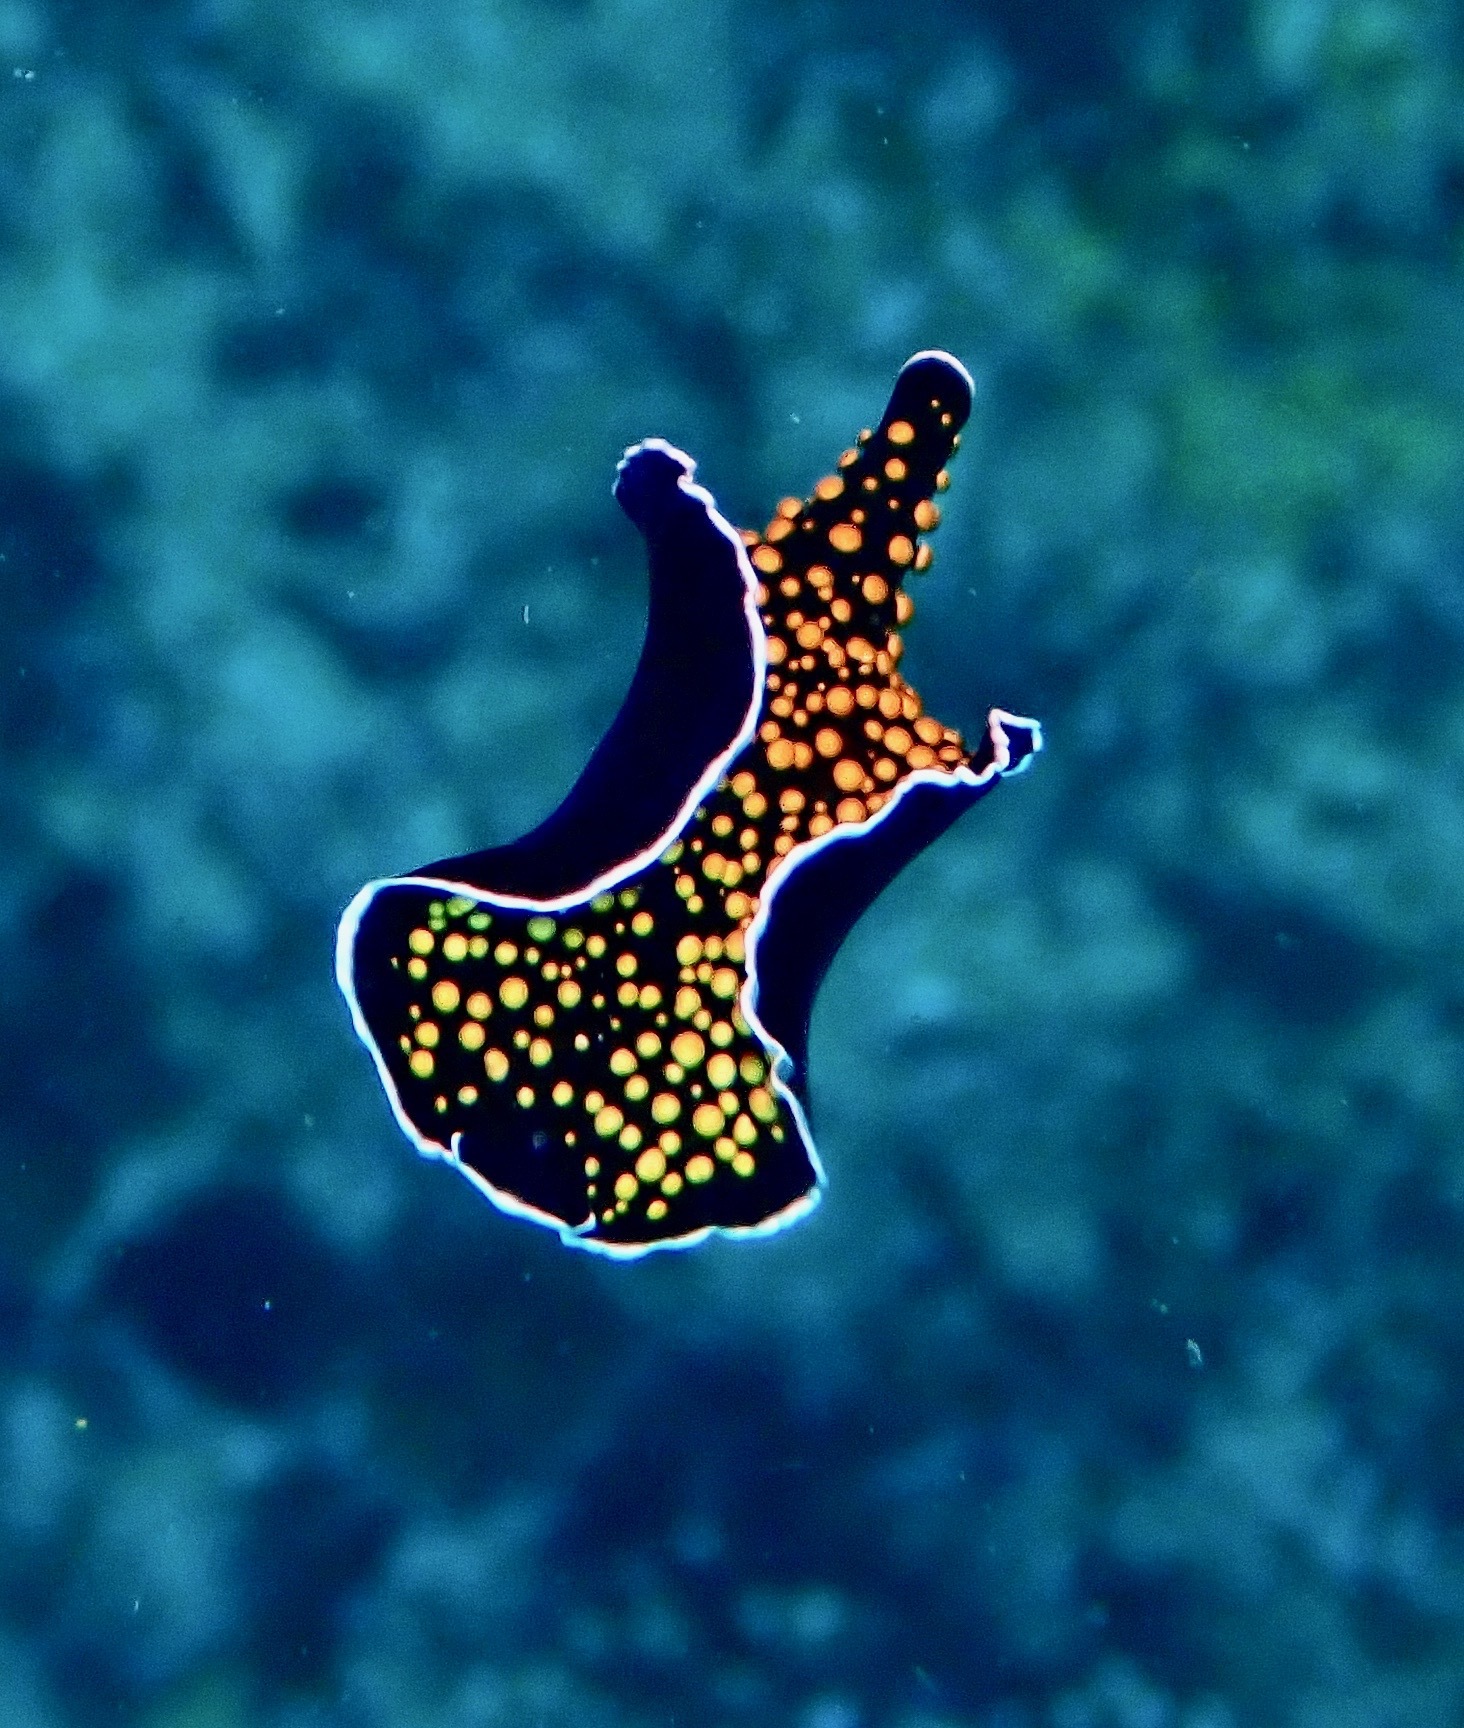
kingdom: Animalia
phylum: Platyhelminthes
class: Turbellaria
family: Pseudocerotidae
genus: Thysanozoon
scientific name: Thysanozoon nigropapillosum
